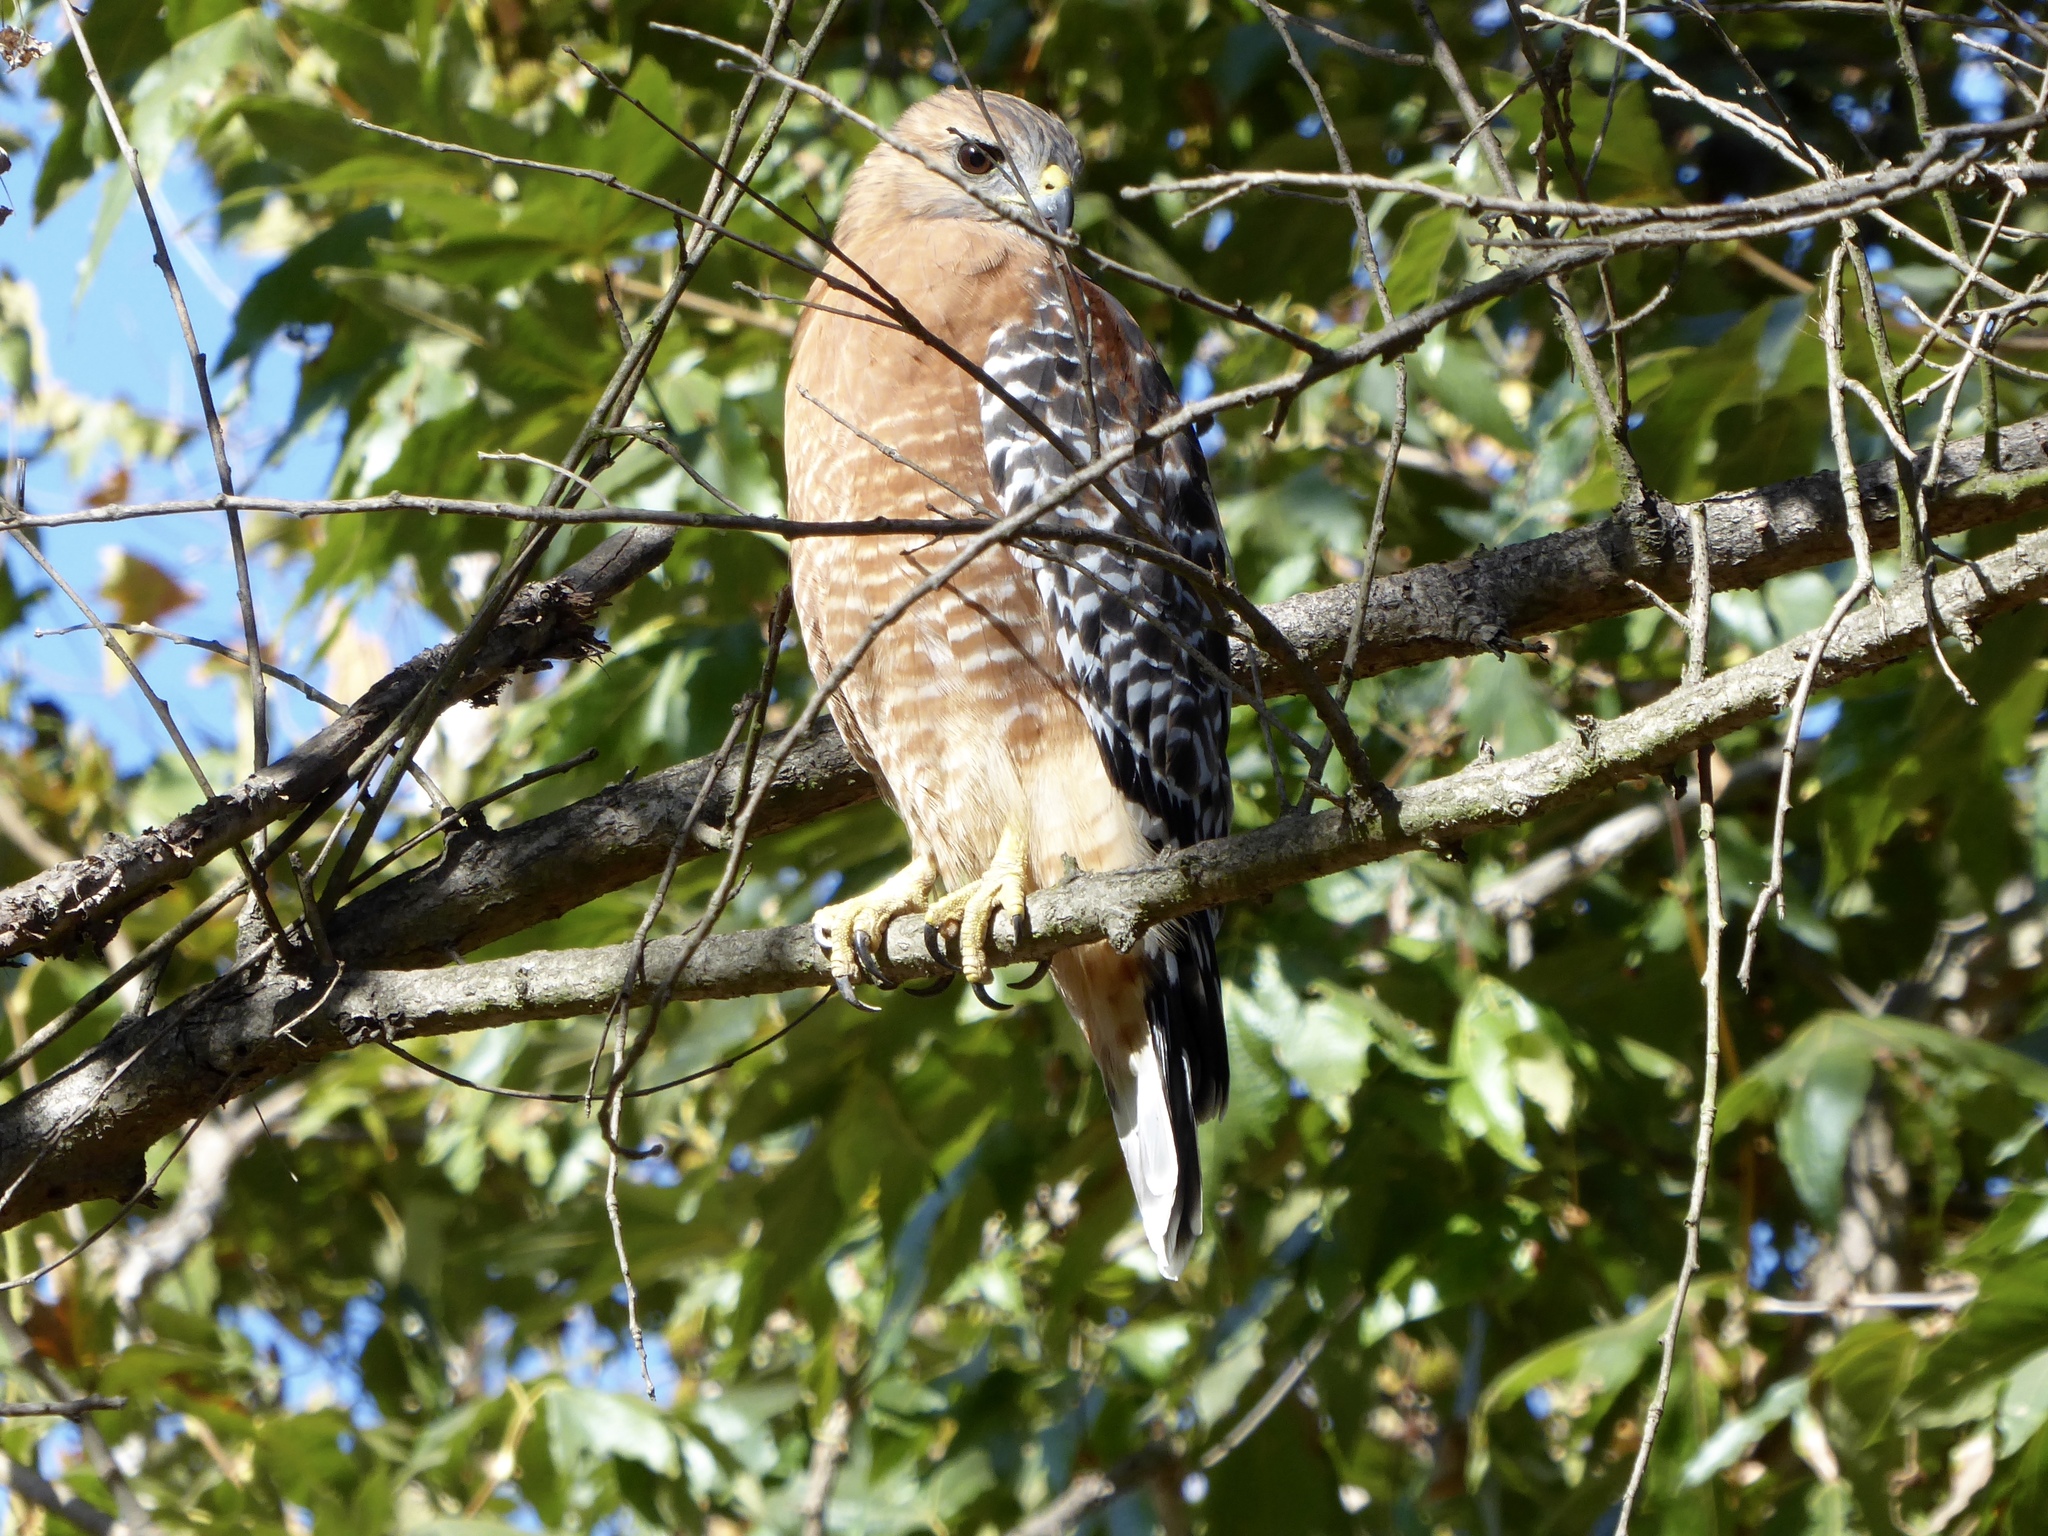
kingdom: Animalia
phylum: Chordata
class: Aves
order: Accipitriformes
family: Accipitridae
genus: Buteo
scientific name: Buteo lineatus
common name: Red-shouldered hawk
